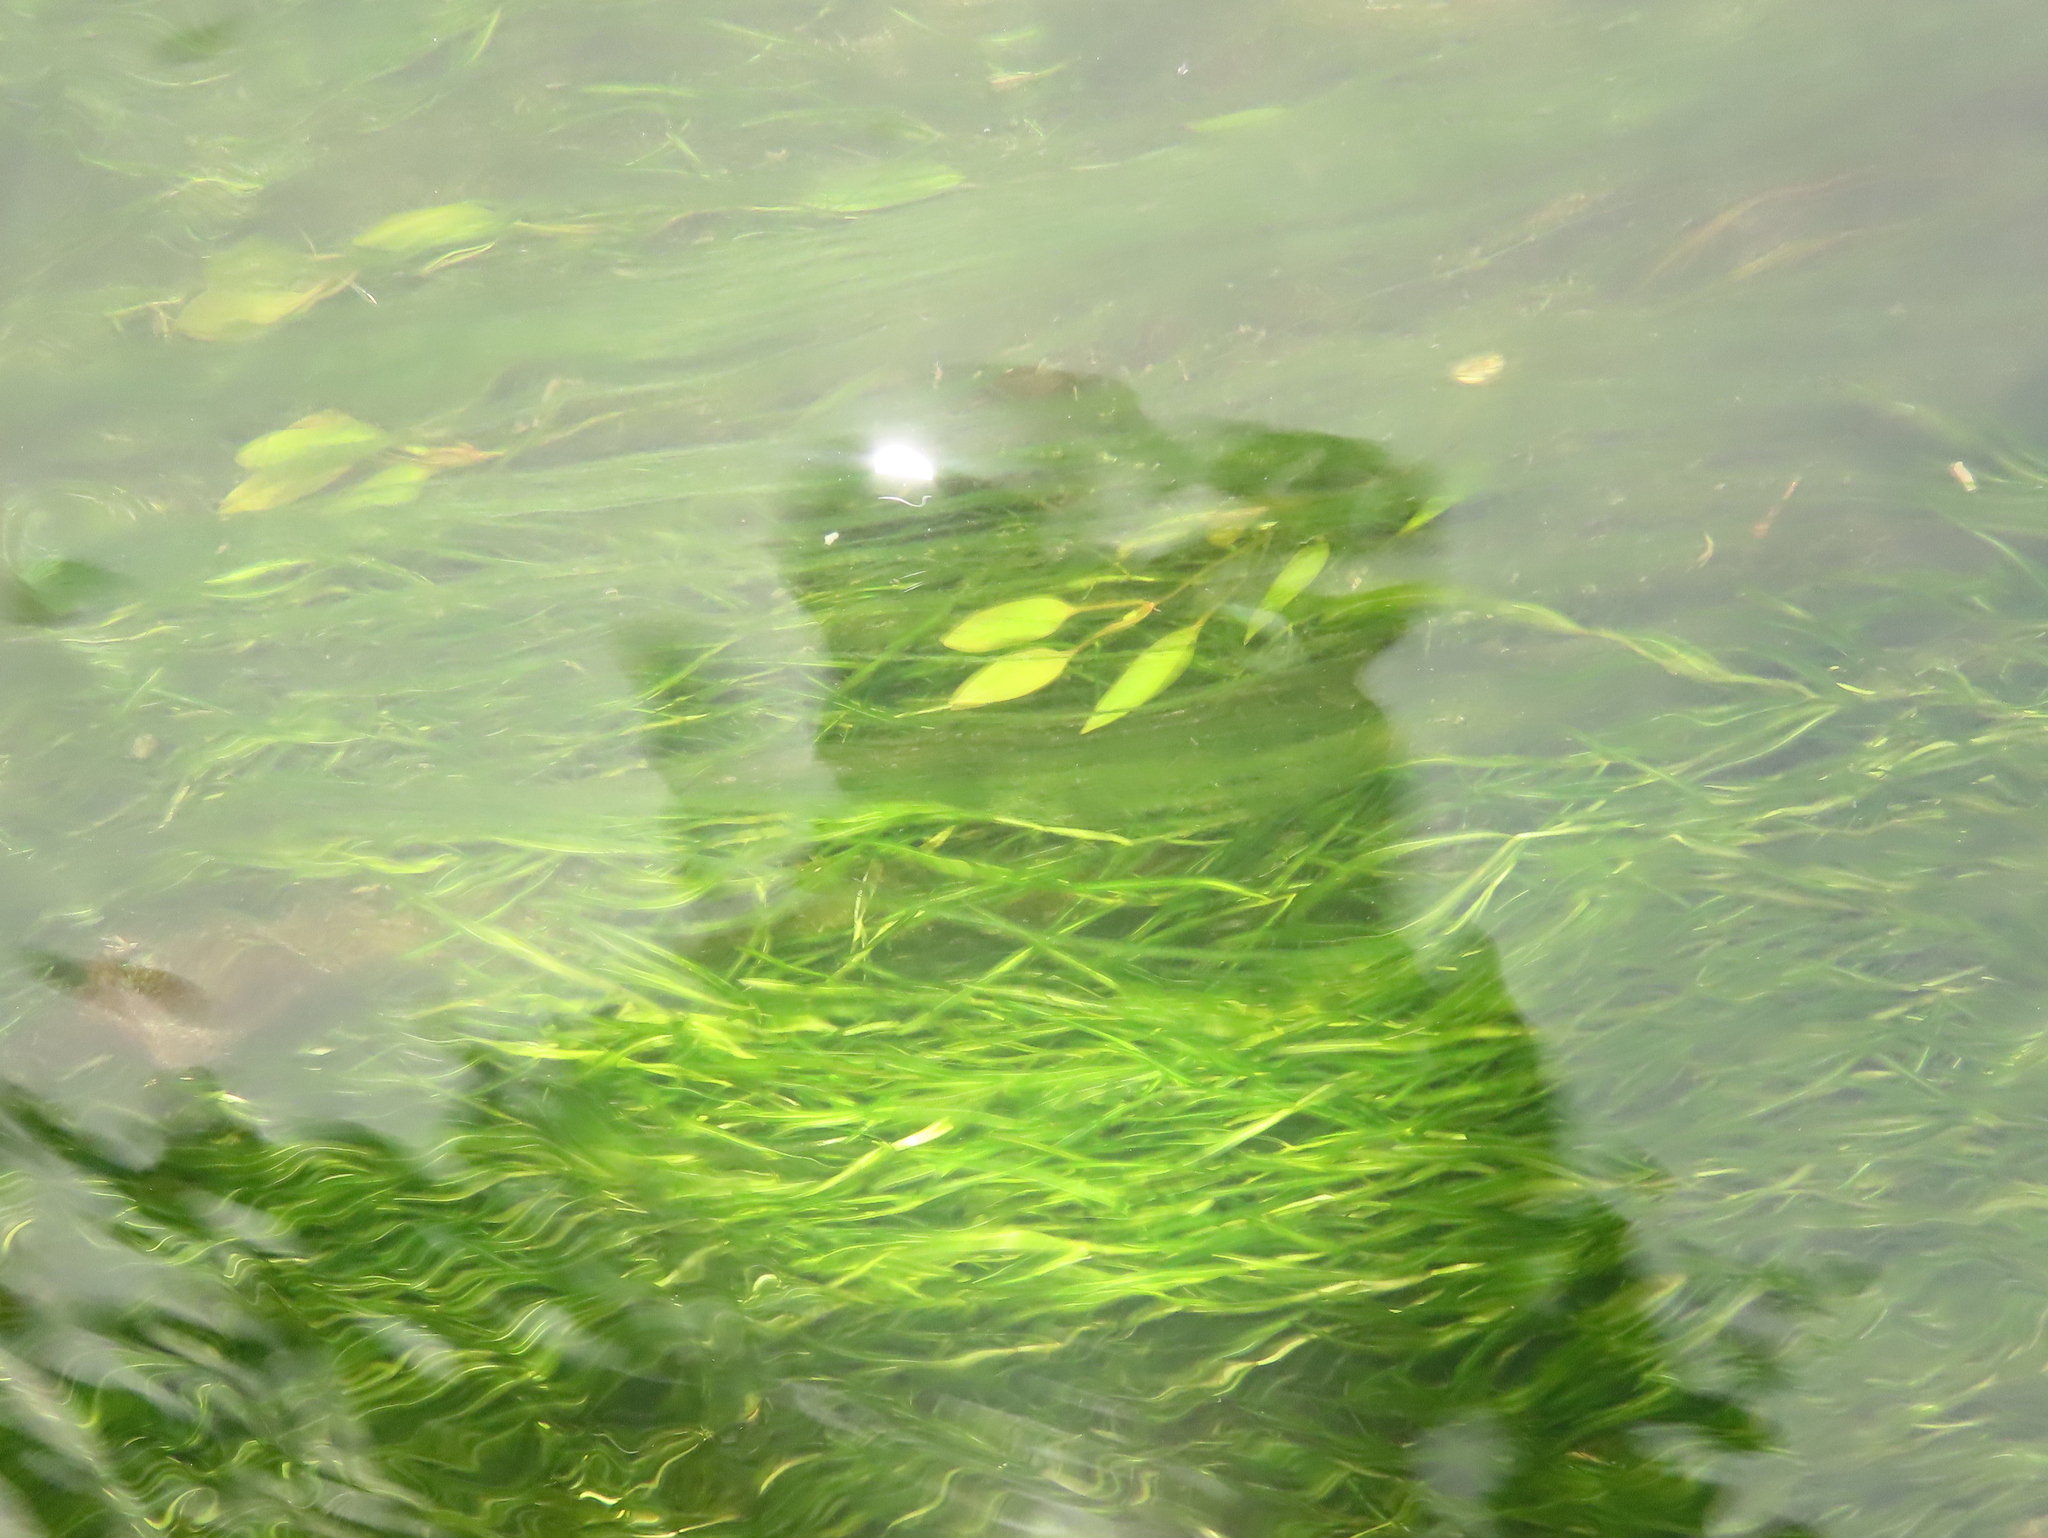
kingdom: Plantae
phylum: Tracheophyta
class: Liliopsida
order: Alismatales
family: Potamogetonaceae
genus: Potamogeton
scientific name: Potamogeton octandrus
